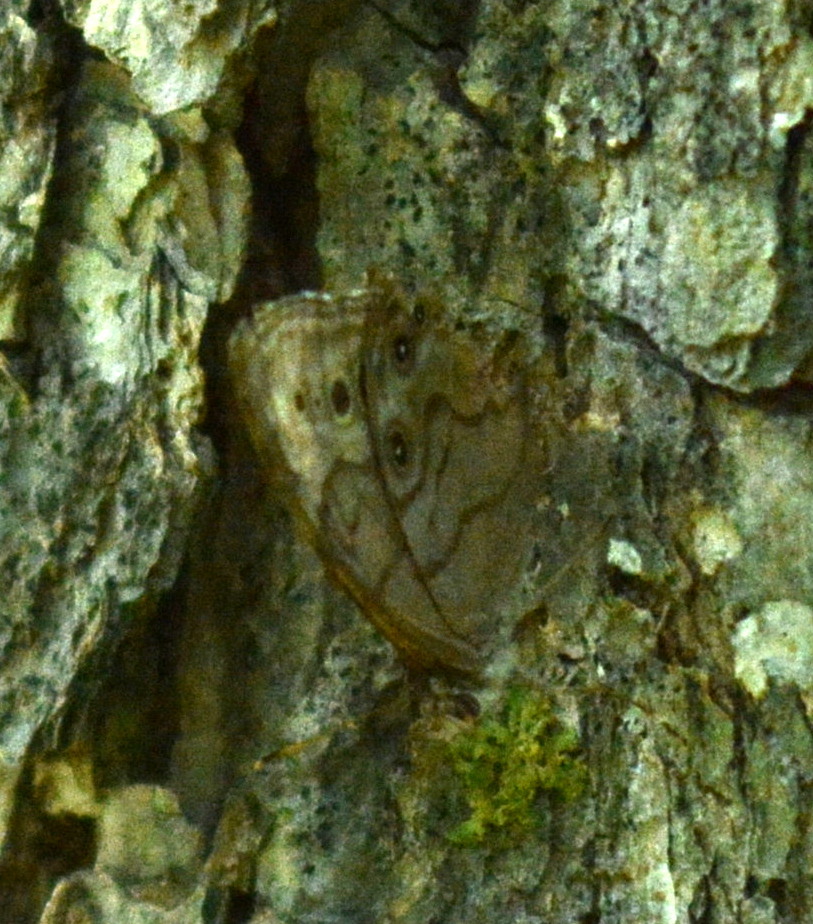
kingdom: Animalia
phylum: Arthropoda
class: Insecta
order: Lepidoptera
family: Nymphalidae
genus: Lethe
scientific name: Lethe anthedon
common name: Northern pearly-eye
